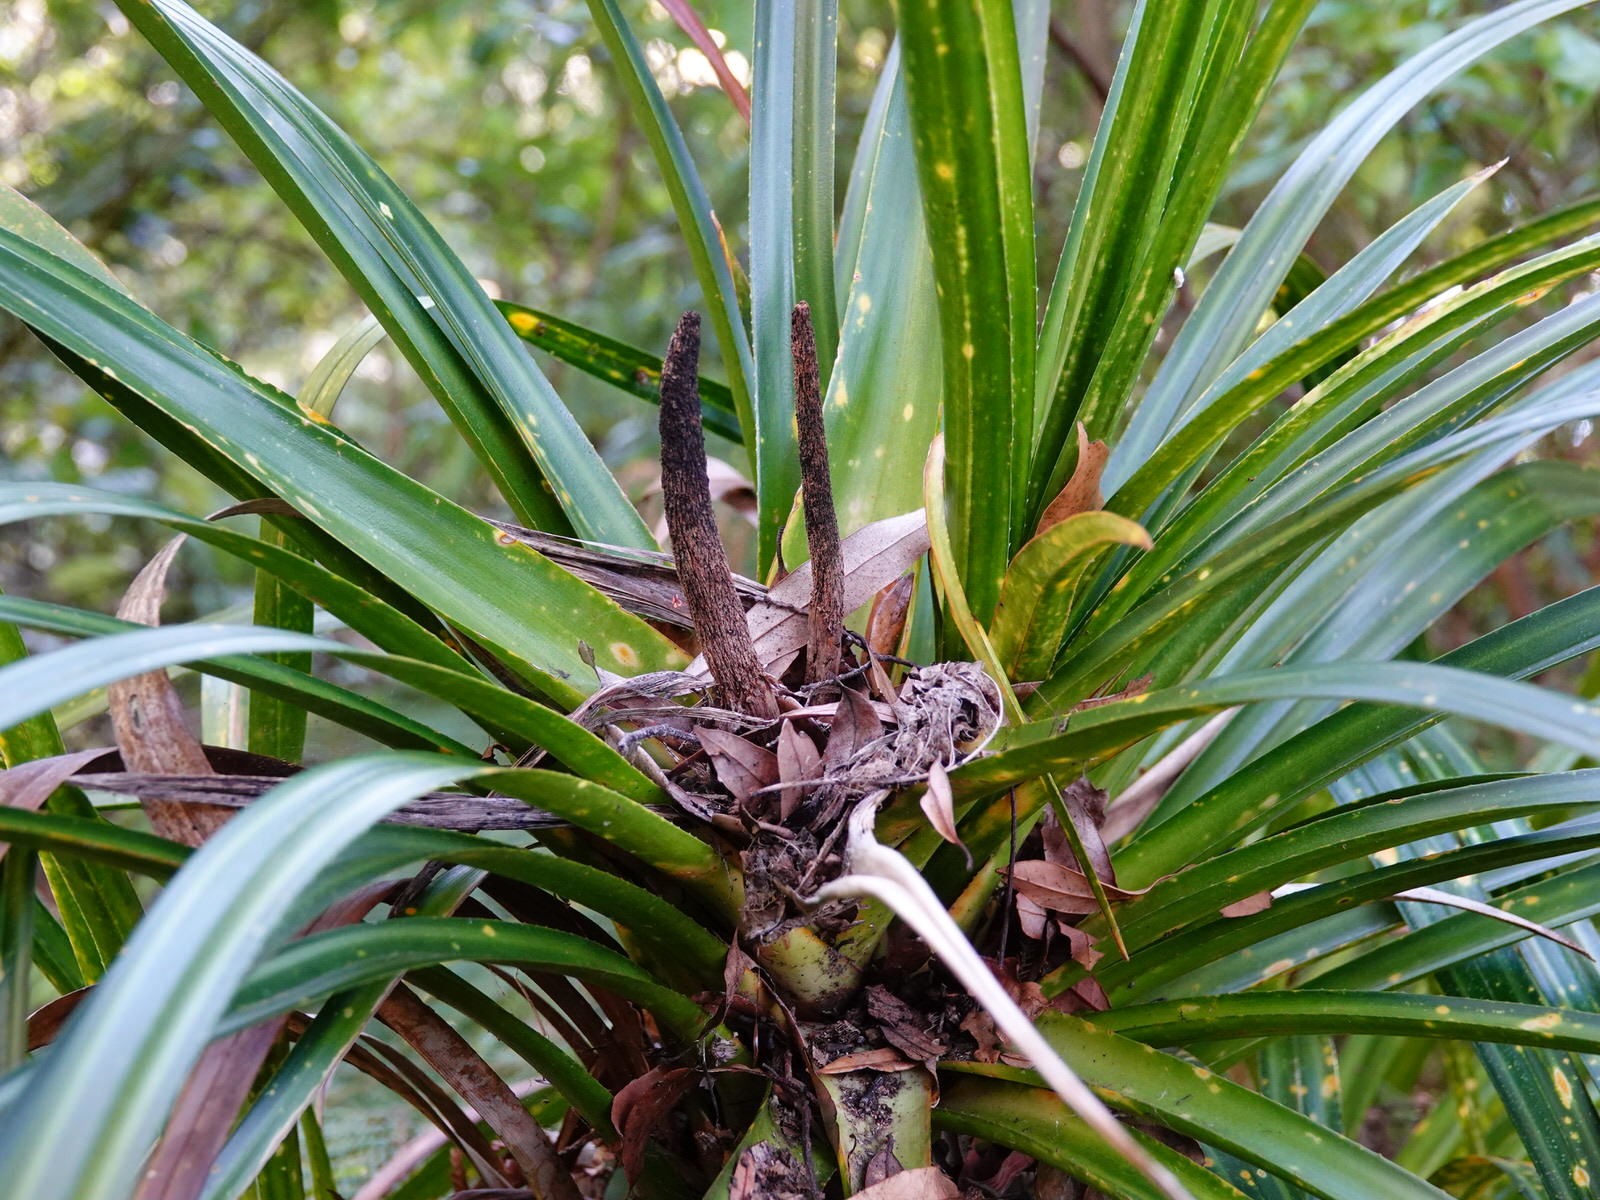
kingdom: Plantae
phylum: Tracheophyta
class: Liliopsida
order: Pandanales
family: Pandanaceae
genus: Freycinetia
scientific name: Freycinetia banksii
